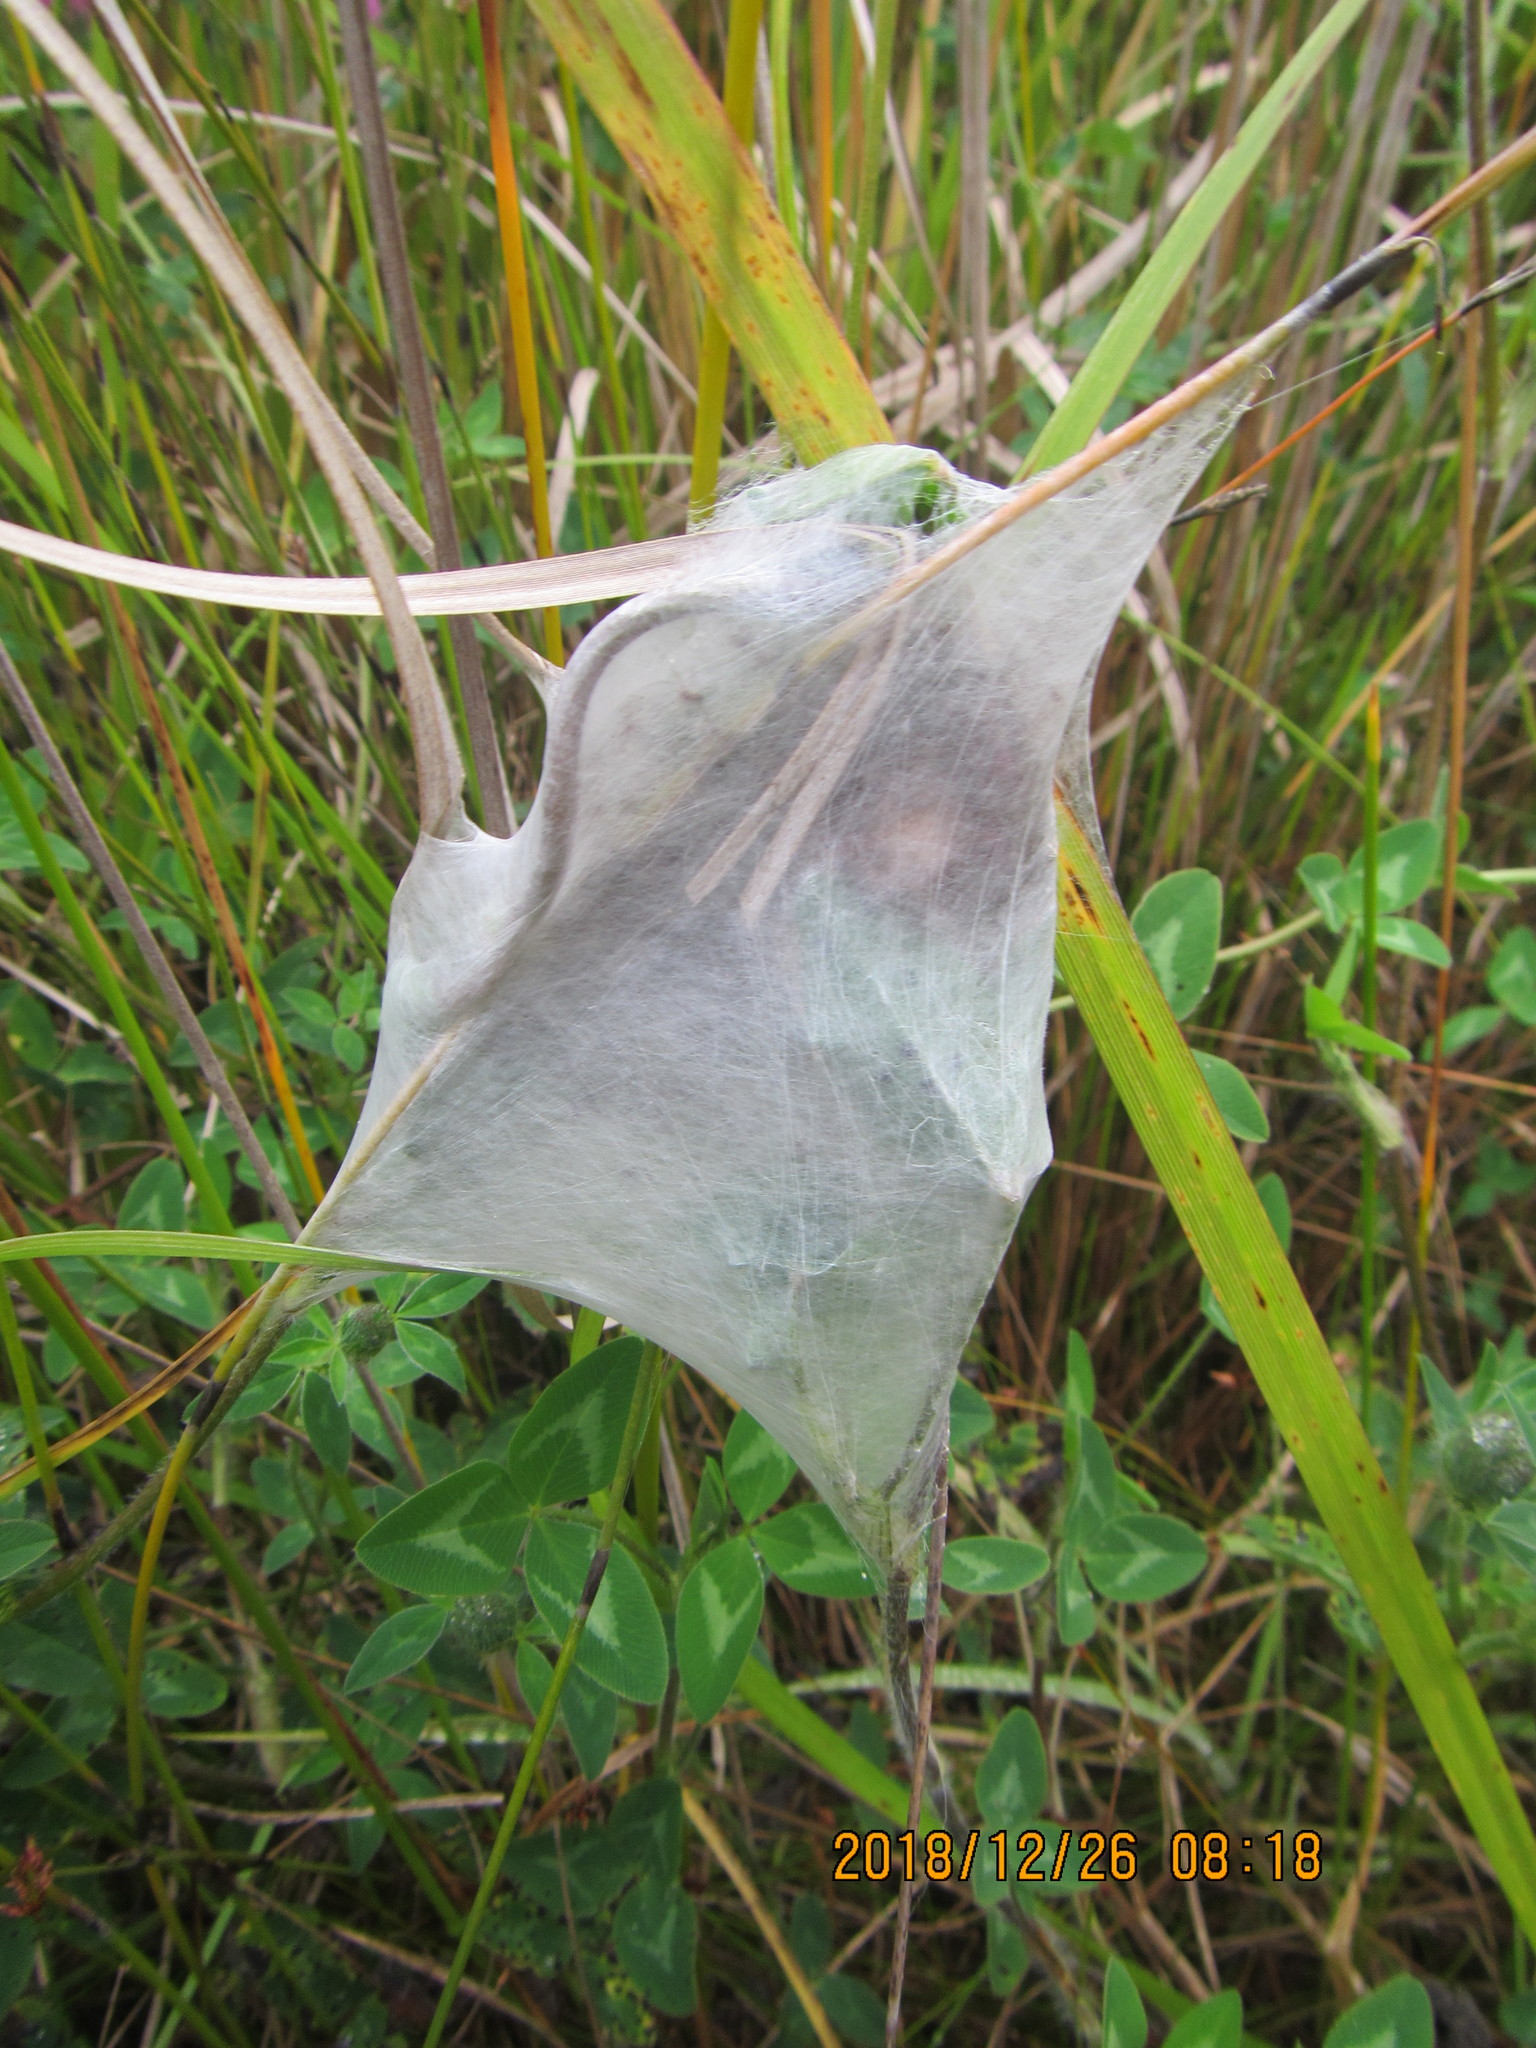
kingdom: Animalia
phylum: Arthropoda
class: Arachnida
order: Araneae
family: Pisauridae
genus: Dolomedes
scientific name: Dolomedes minor
